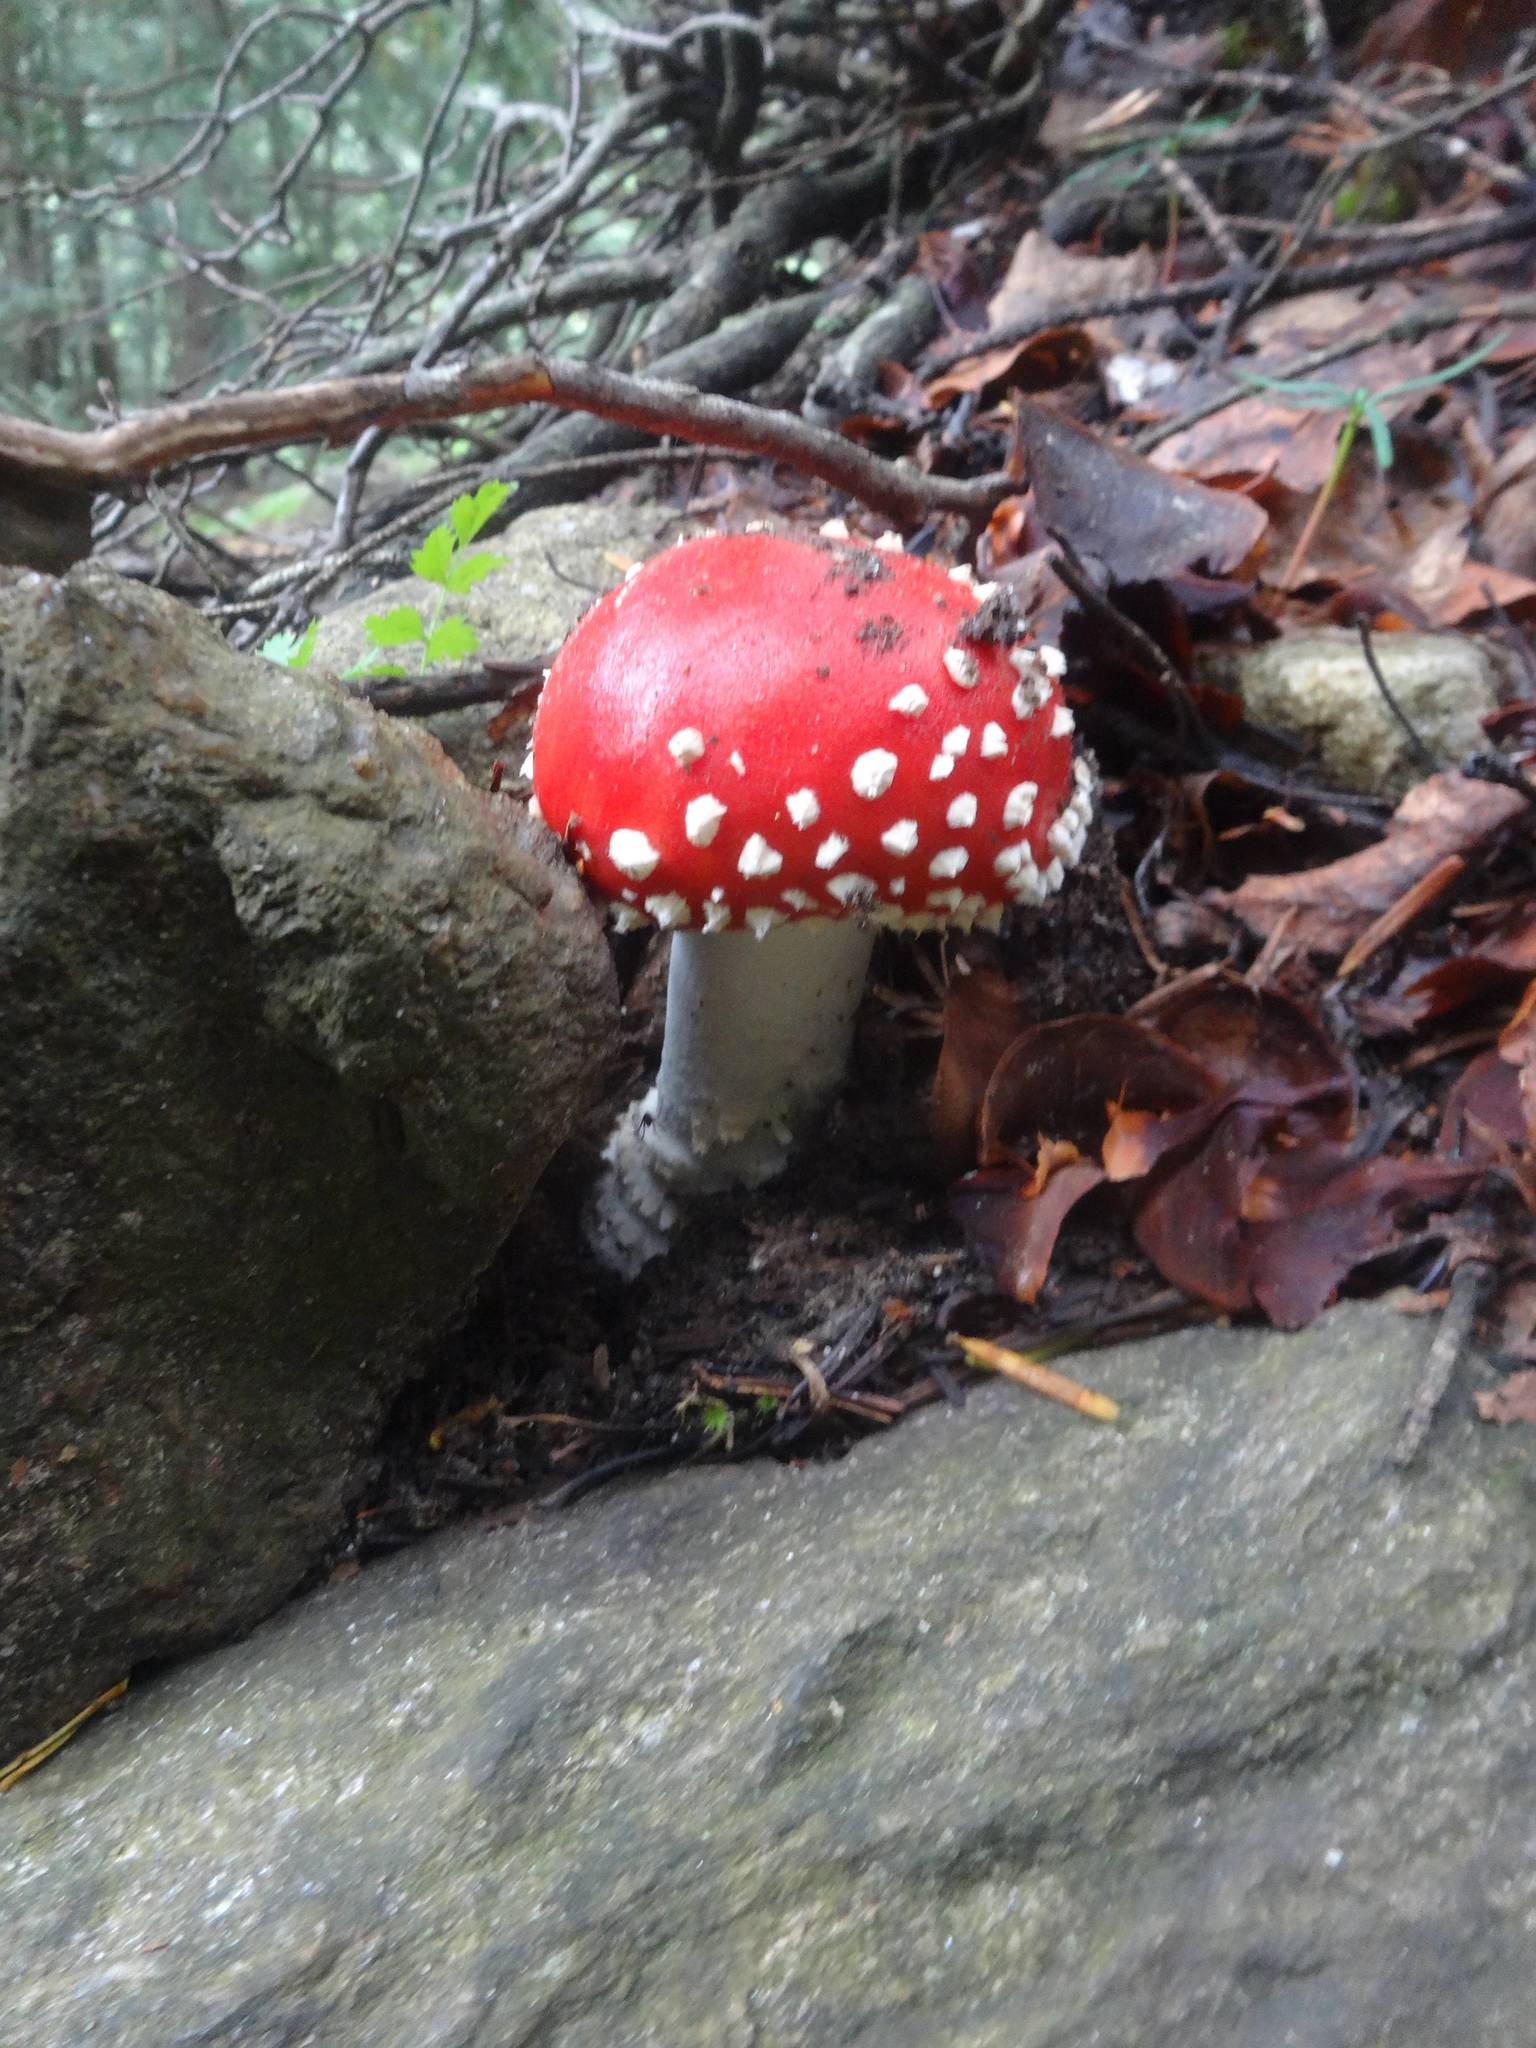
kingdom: Fungi
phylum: Basidiomycota
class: Agaricomycetes
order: Agaricales
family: Amanitaceae
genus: Amanita
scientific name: Amanita muscaria
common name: Fly agaric
